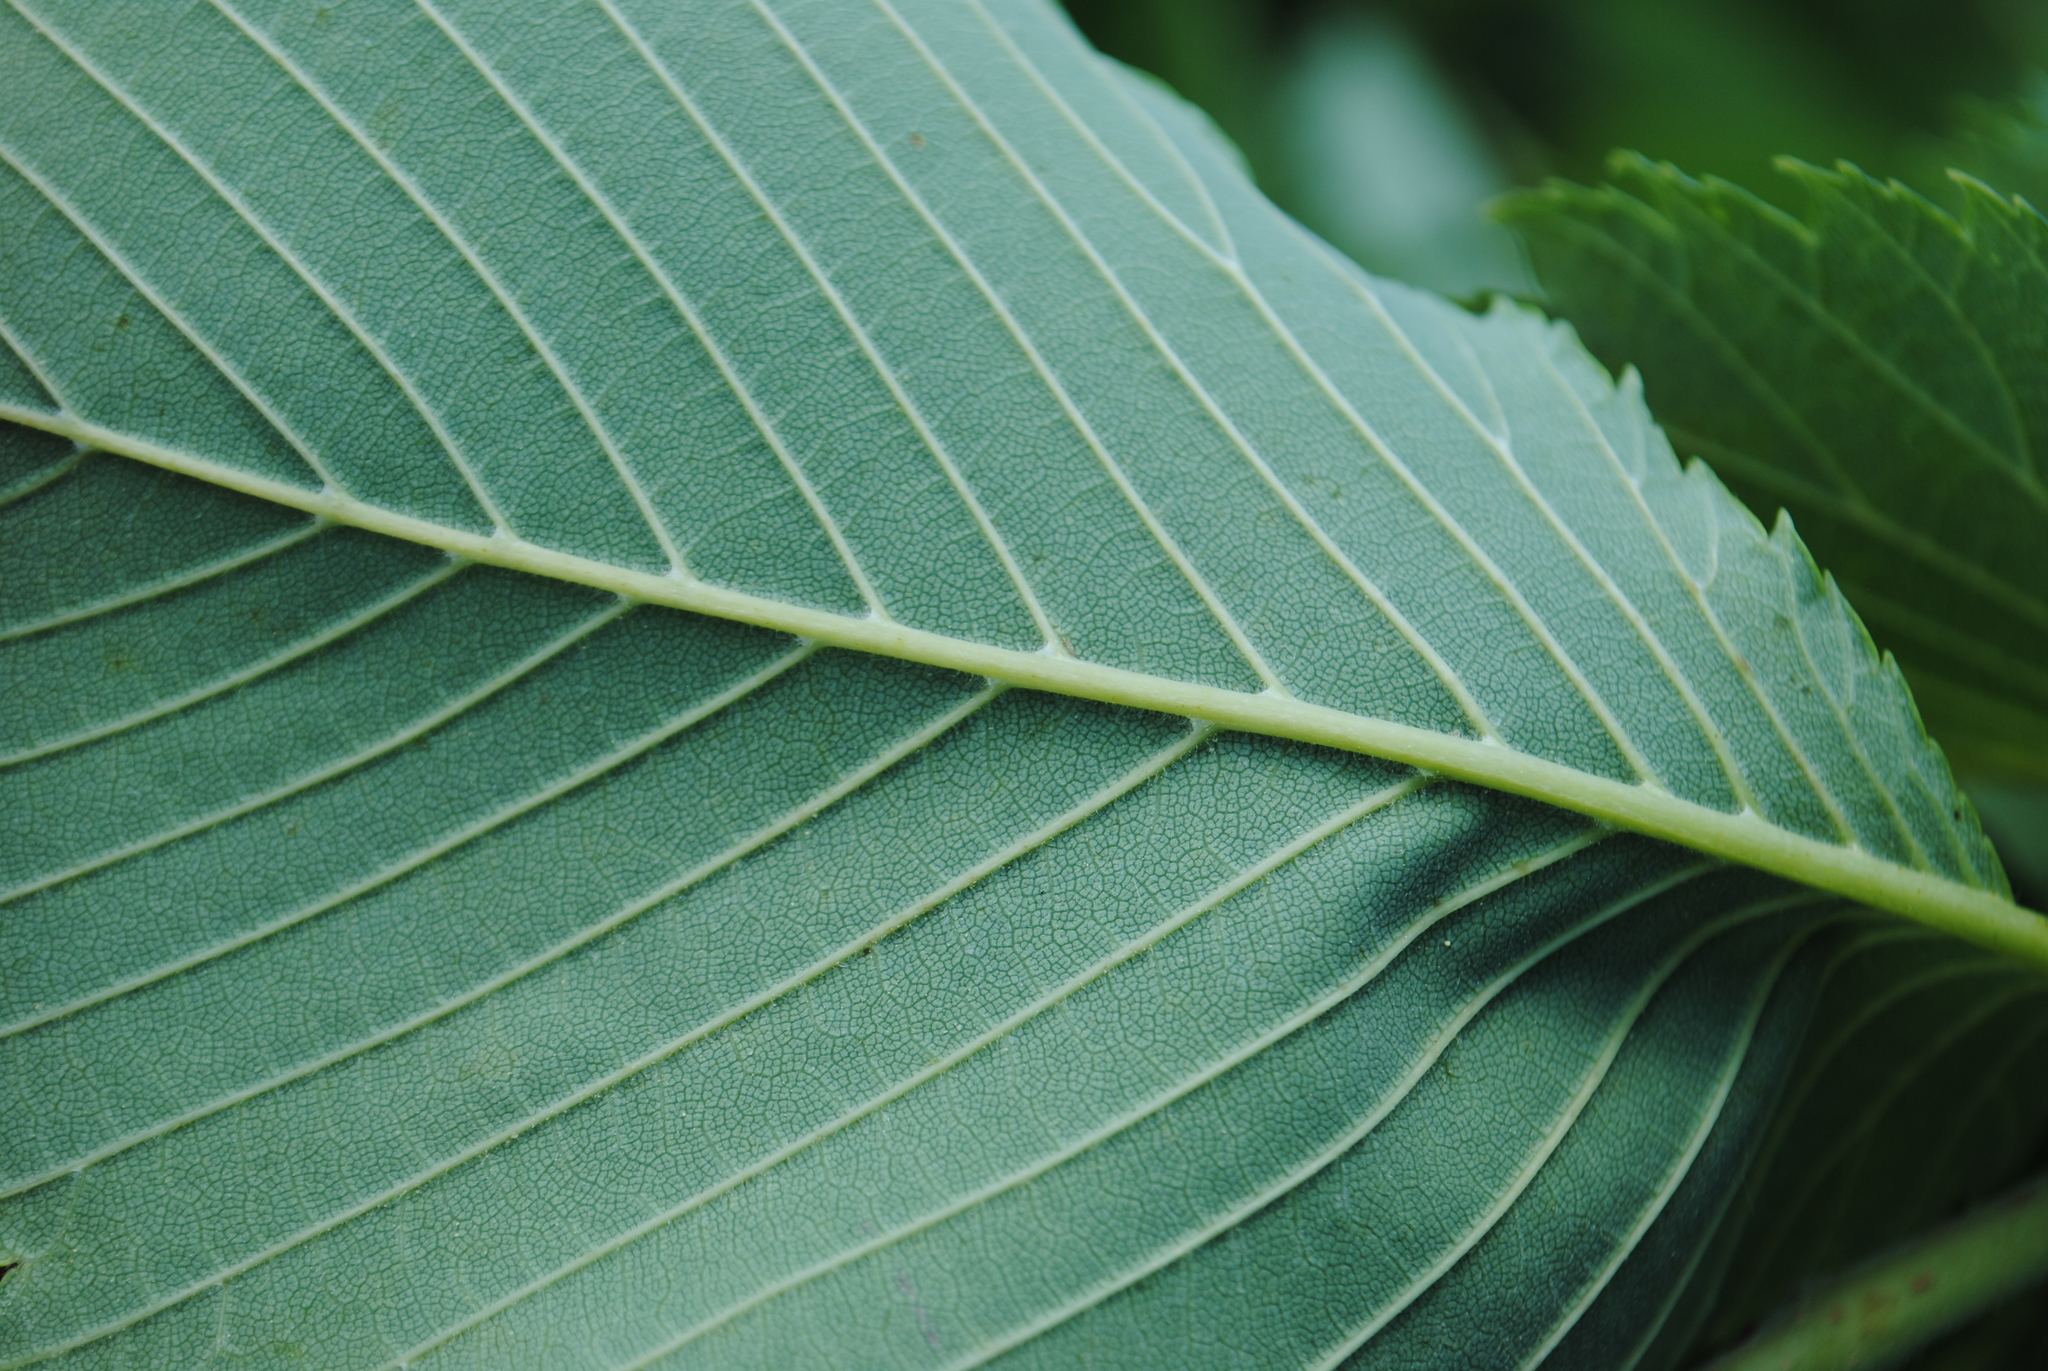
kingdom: Plantae
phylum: Tracheophyta
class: Magnoliopsida
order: Rosales
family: Ulmaceae
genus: Ulmus
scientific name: Ulmus americana
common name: American elm
